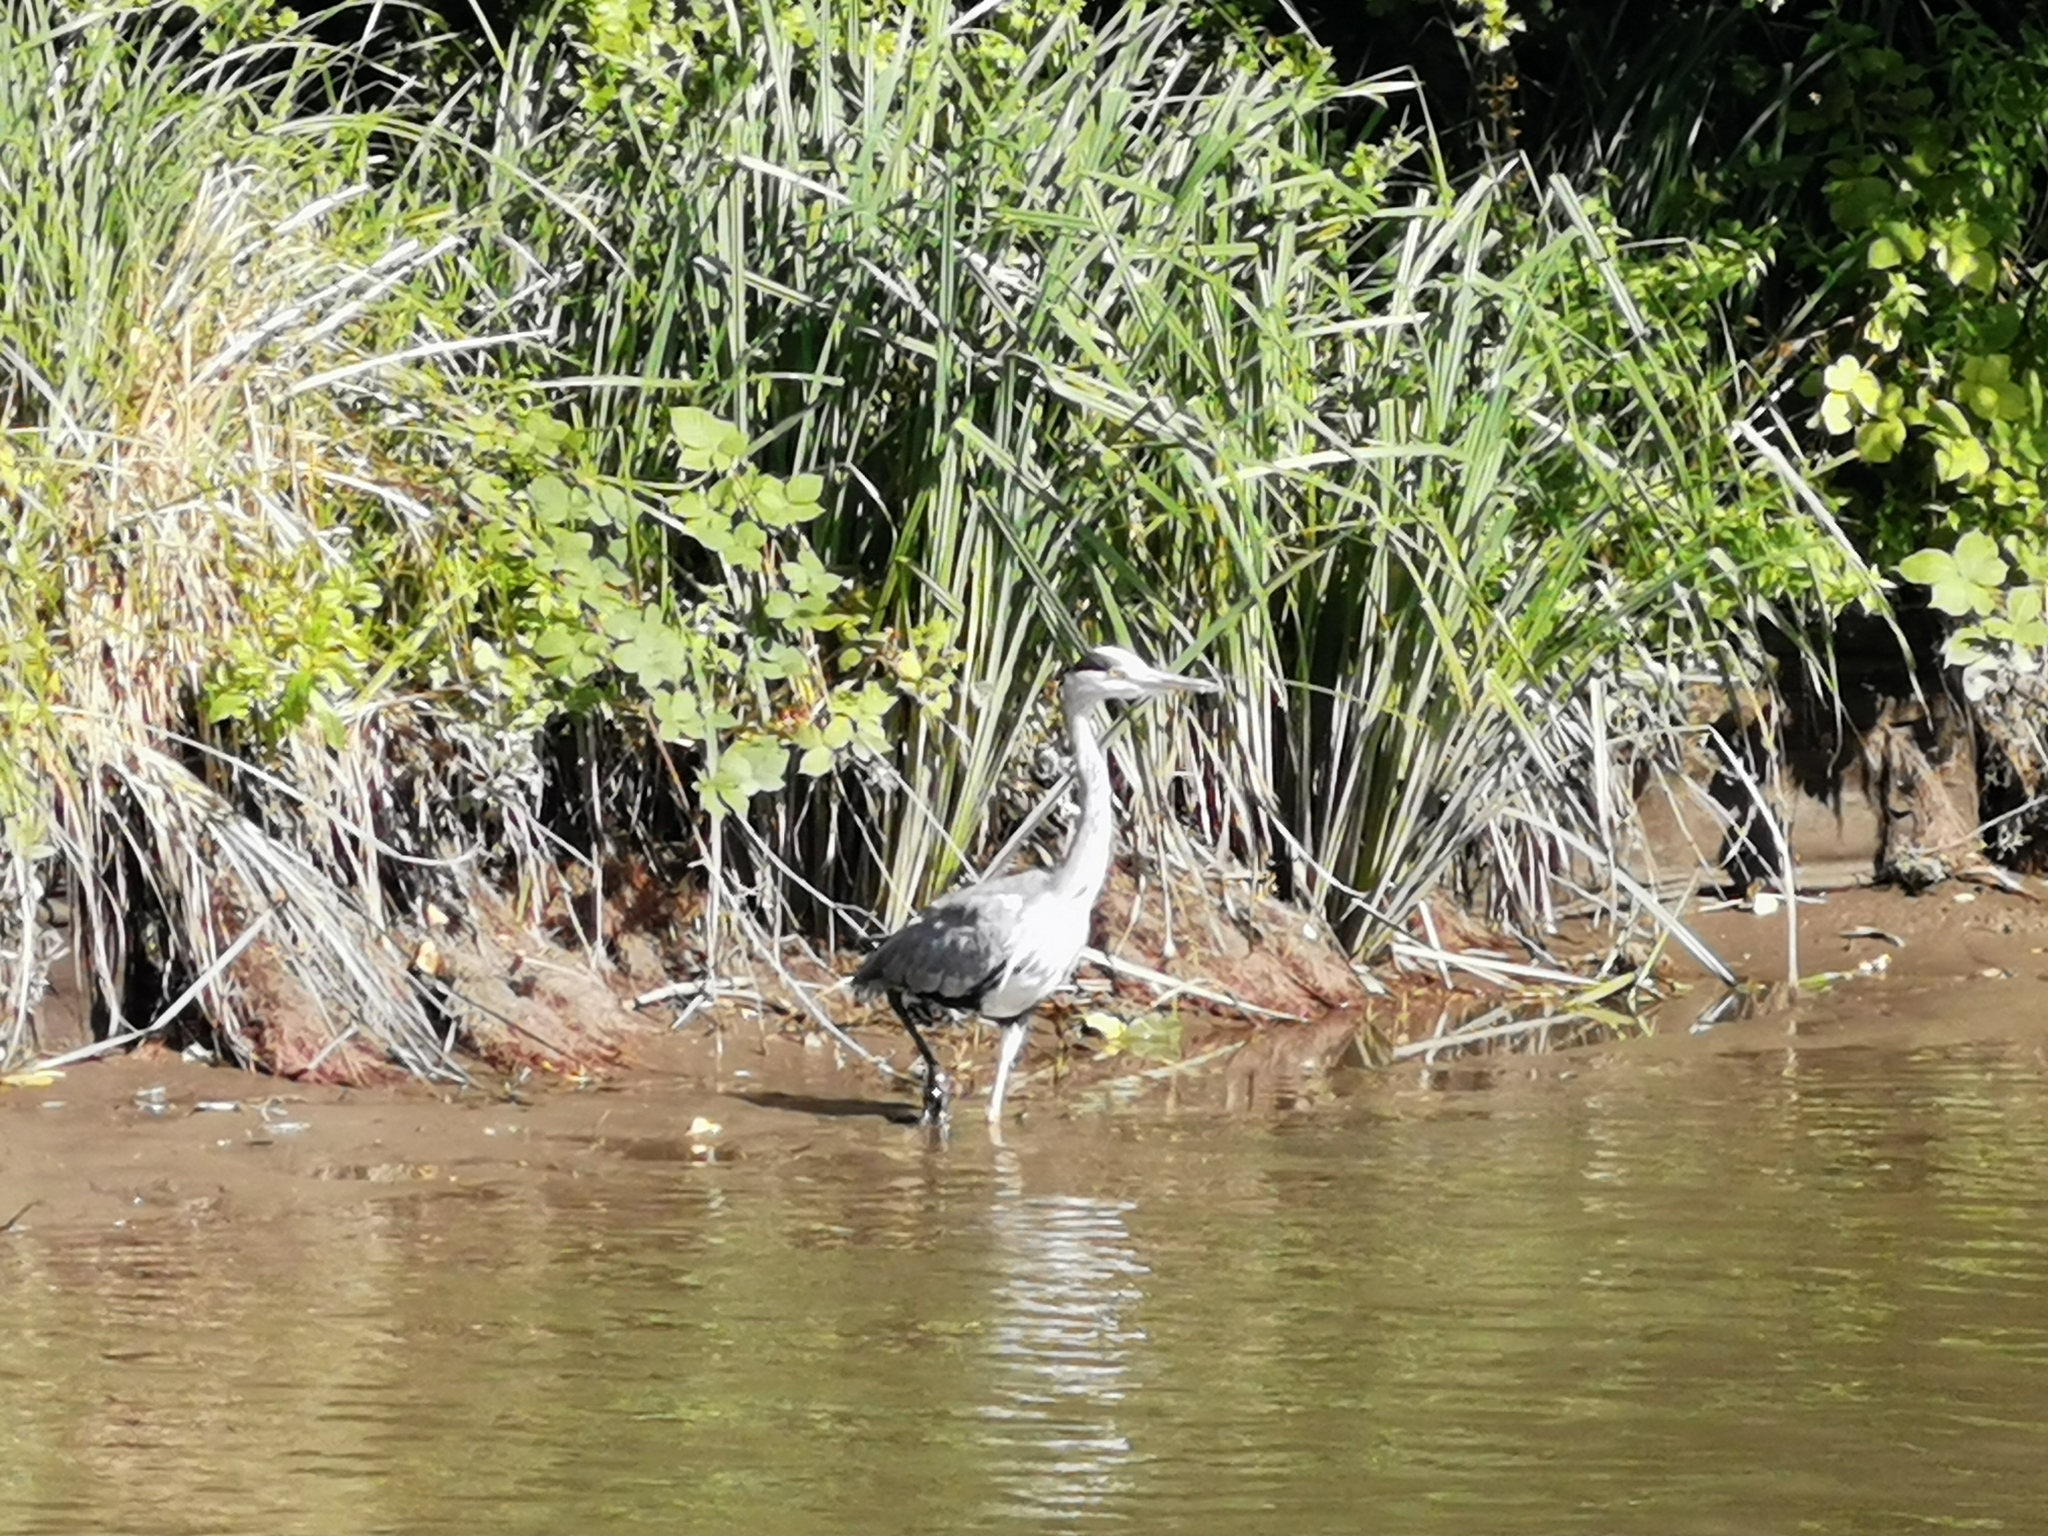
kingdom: Animalia
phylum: Chordata
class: Aves
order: Pelecaniformes
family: Ardeidae
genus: Ardea
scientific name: Ardea cinerea
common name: Grey heron
